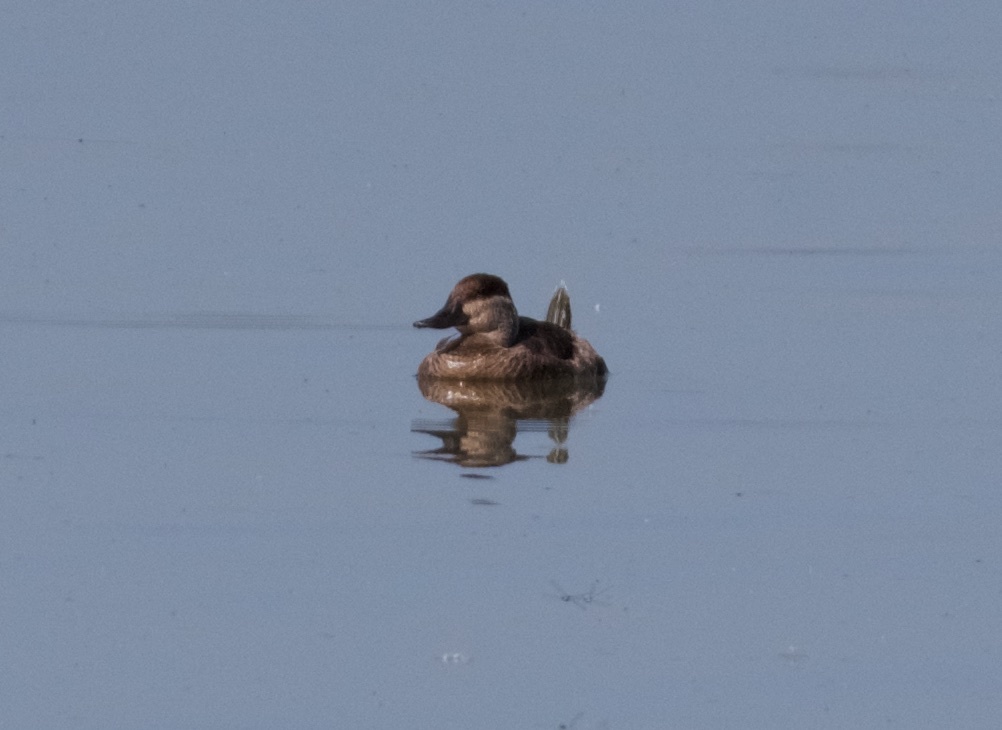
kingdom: Animalia
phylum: Chordata
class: Aves
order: Anseriformes
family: Anatidae
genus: Oxyura
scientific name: Oxyura jamaicensis
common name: Ruddy duck
